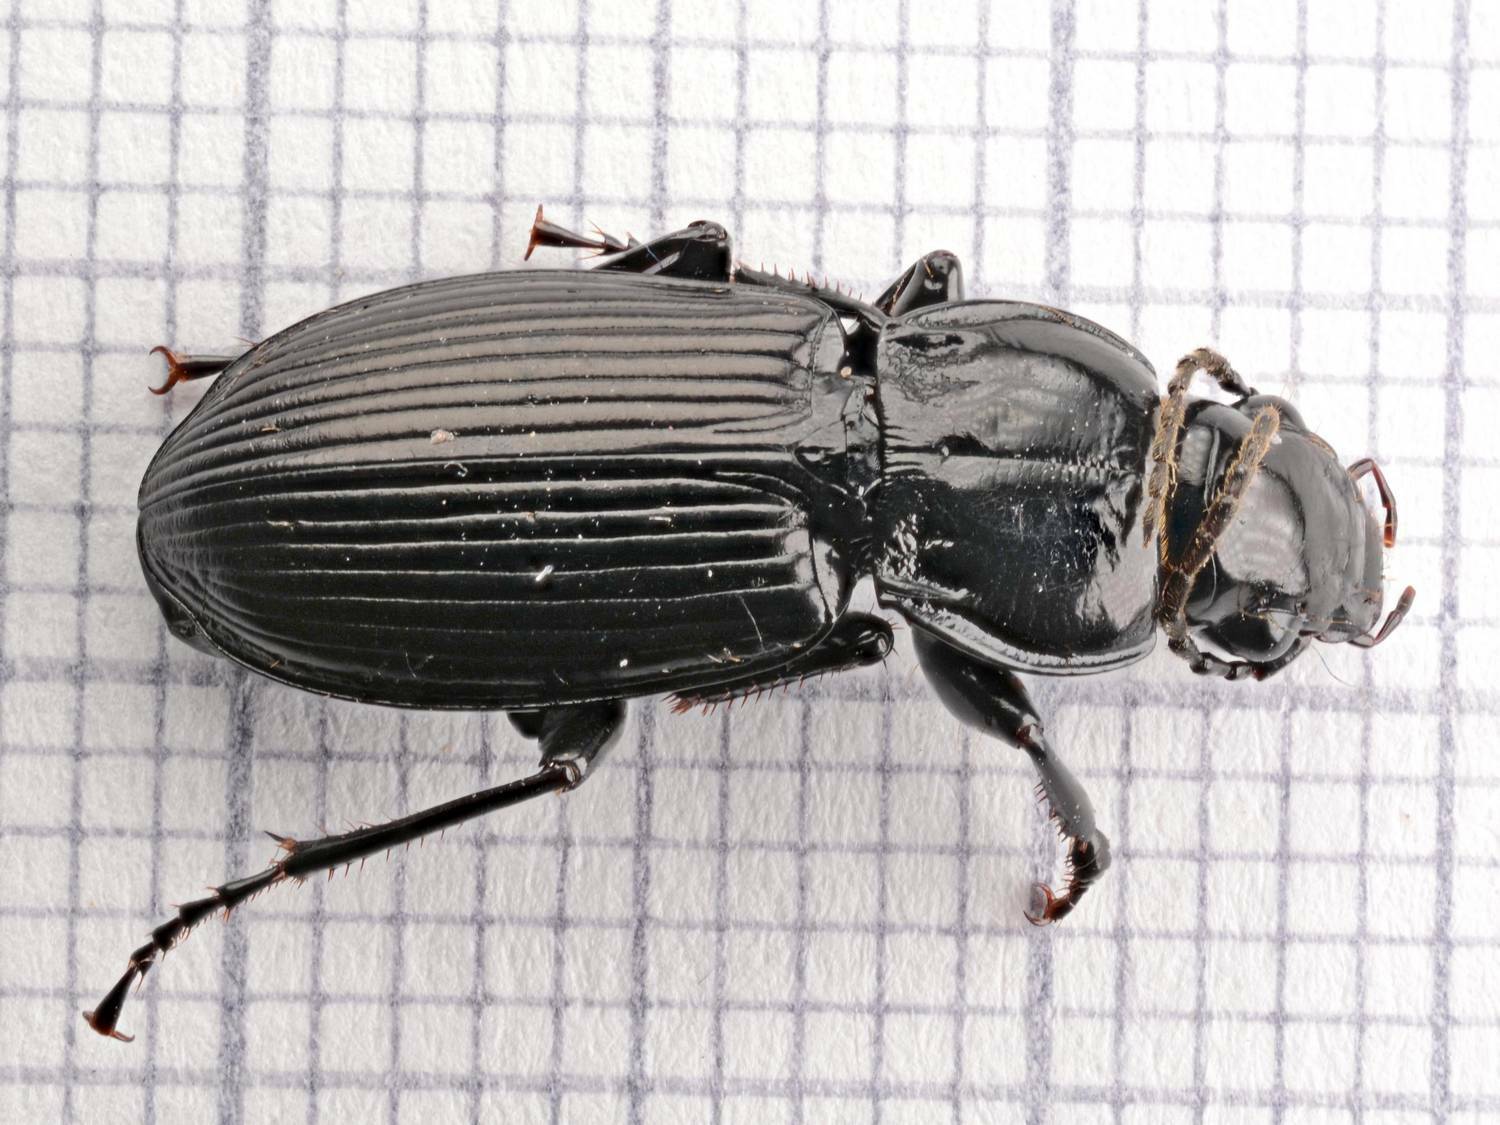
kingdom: Animalia
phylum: Arthropoda
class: Insecta
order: Coleoptera
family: Carabidae
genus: Pterostichus
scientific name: Pterostichus melanarius
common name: European dark harp ground beetle
